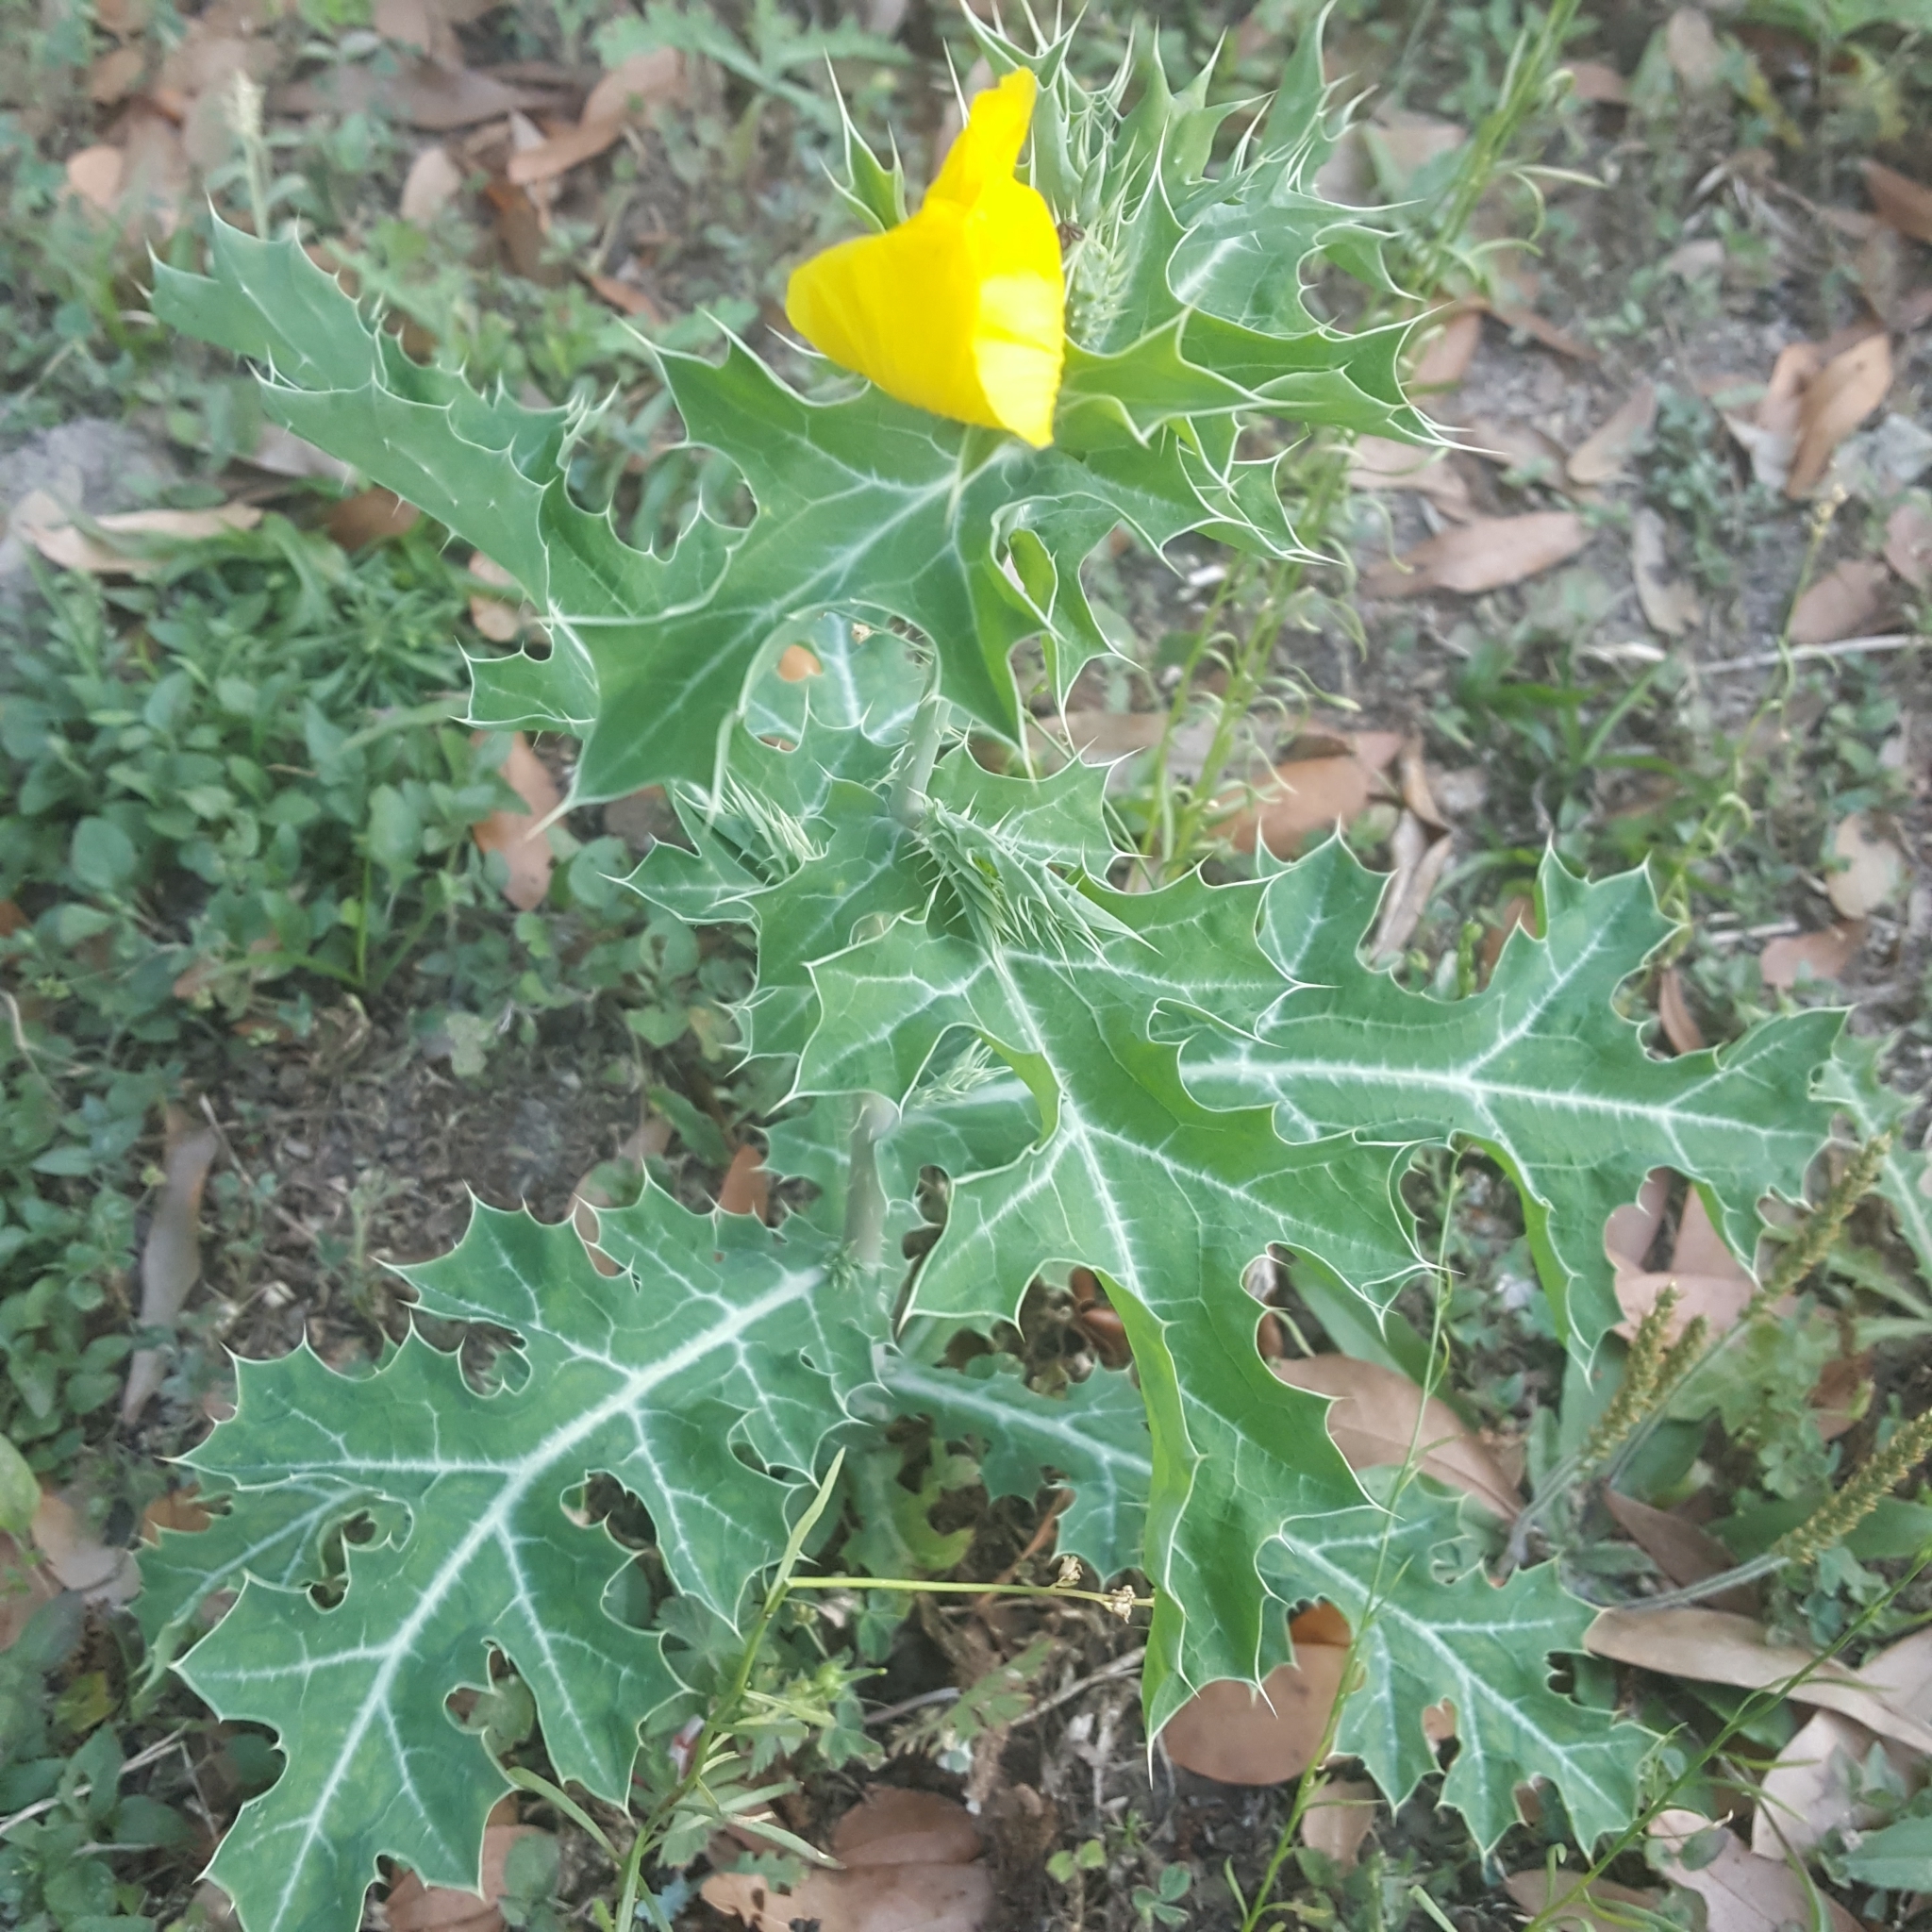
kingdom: Plantae
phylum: Tracheophyta
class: Magnoliopsida
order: Ranunculales
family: Papaveraceae
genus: Argemone
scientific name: Argemone mexicana
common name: Mexican poppy
